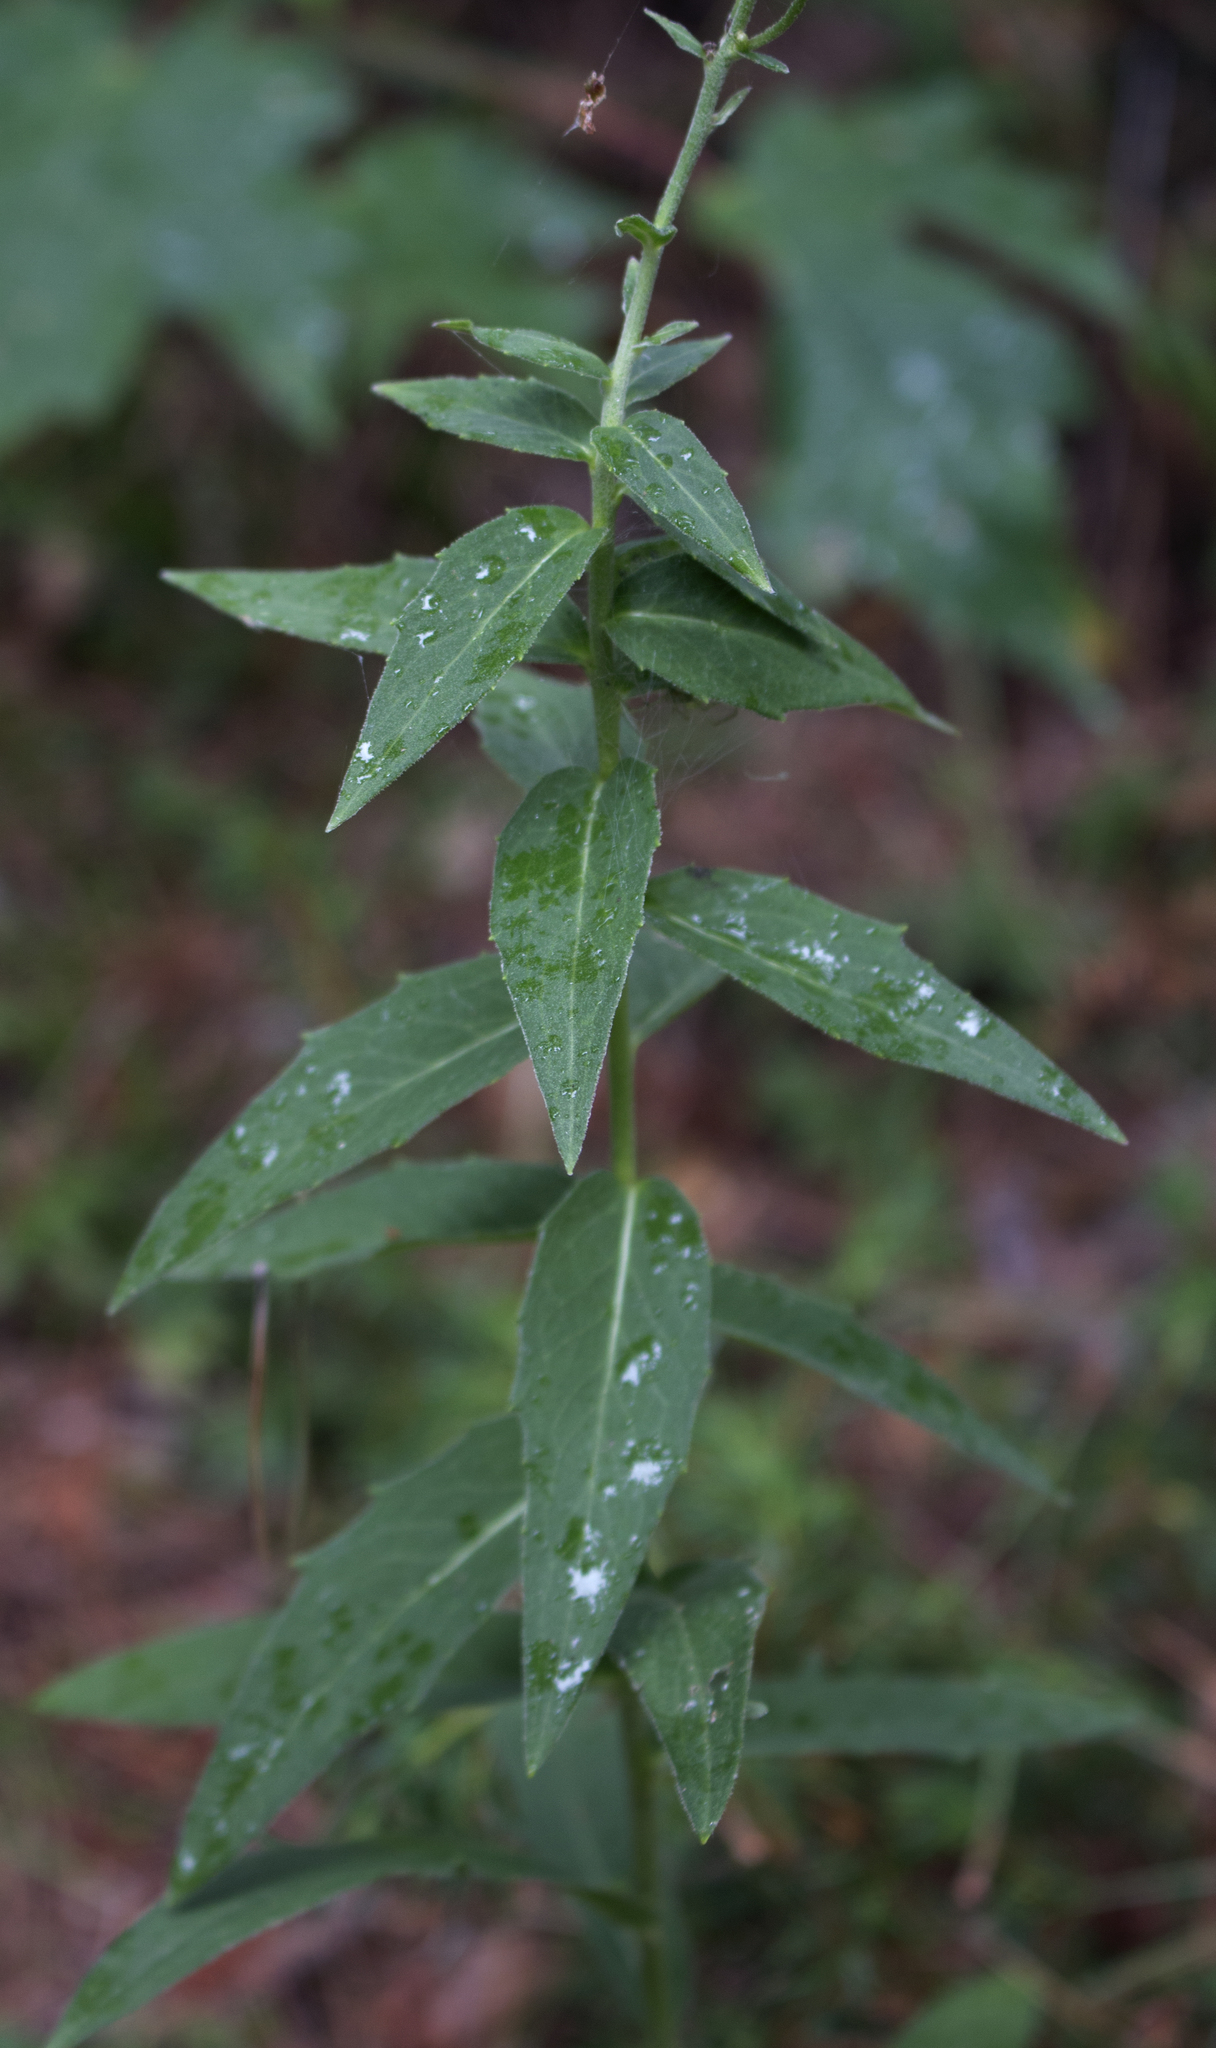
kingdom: Plantae
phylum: Tracheophyta
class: Magnoliopsida
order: Asterales
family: Asteraceae
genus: Hieracium
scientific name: Hieracium umbellatum
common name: Northern hawkweed
